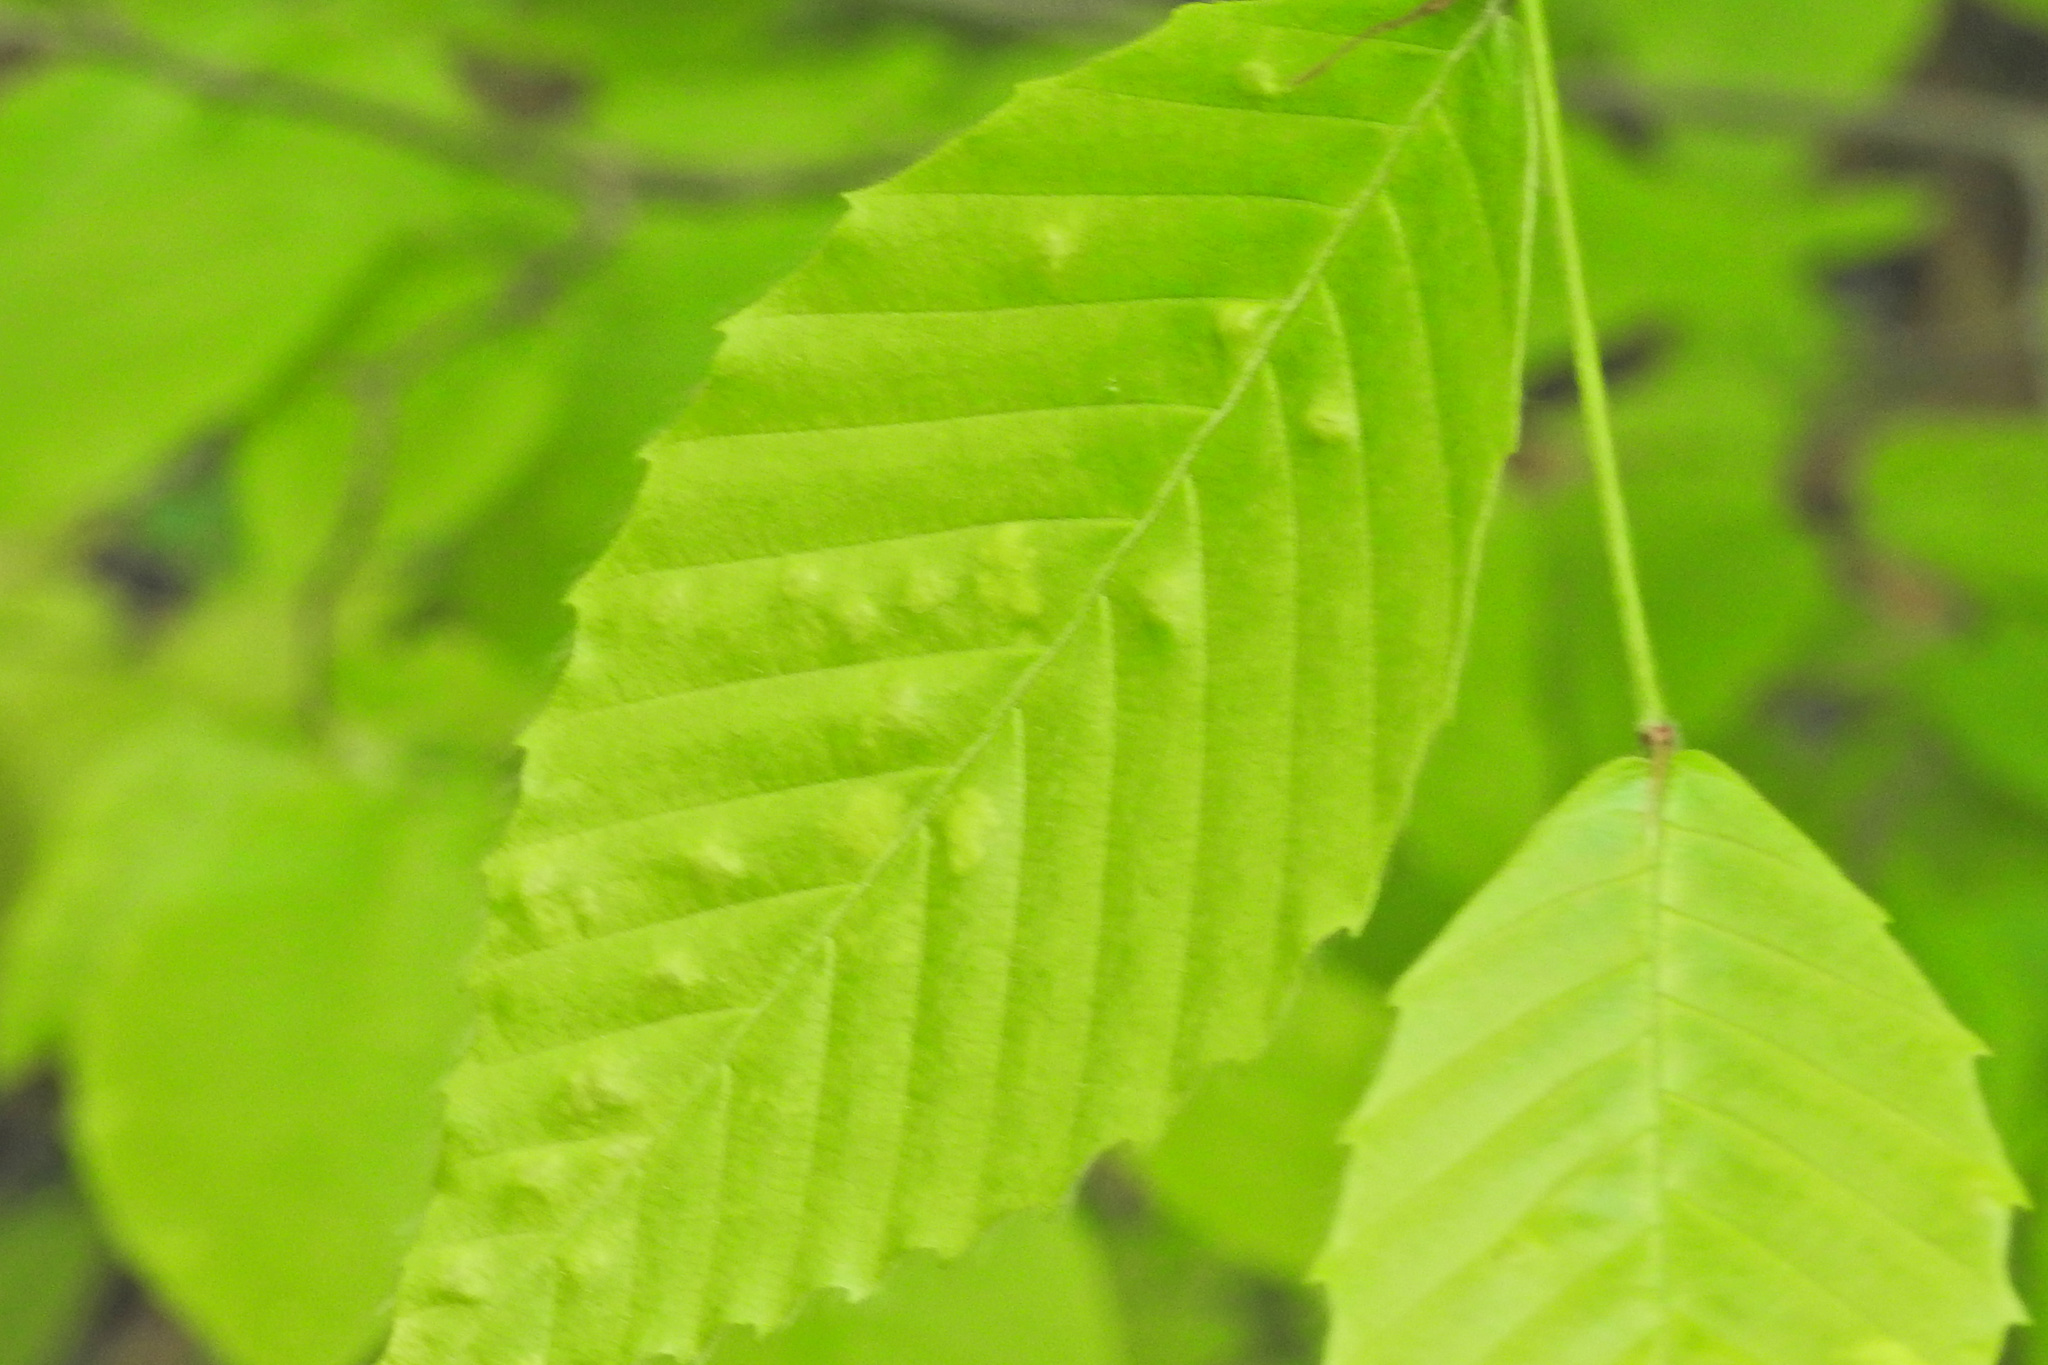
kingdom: Animalia
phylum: Arthropoda
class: Arachnida
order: Trombidiformes
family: Eriophyidae
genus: Acalitus
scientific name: Acalitus
